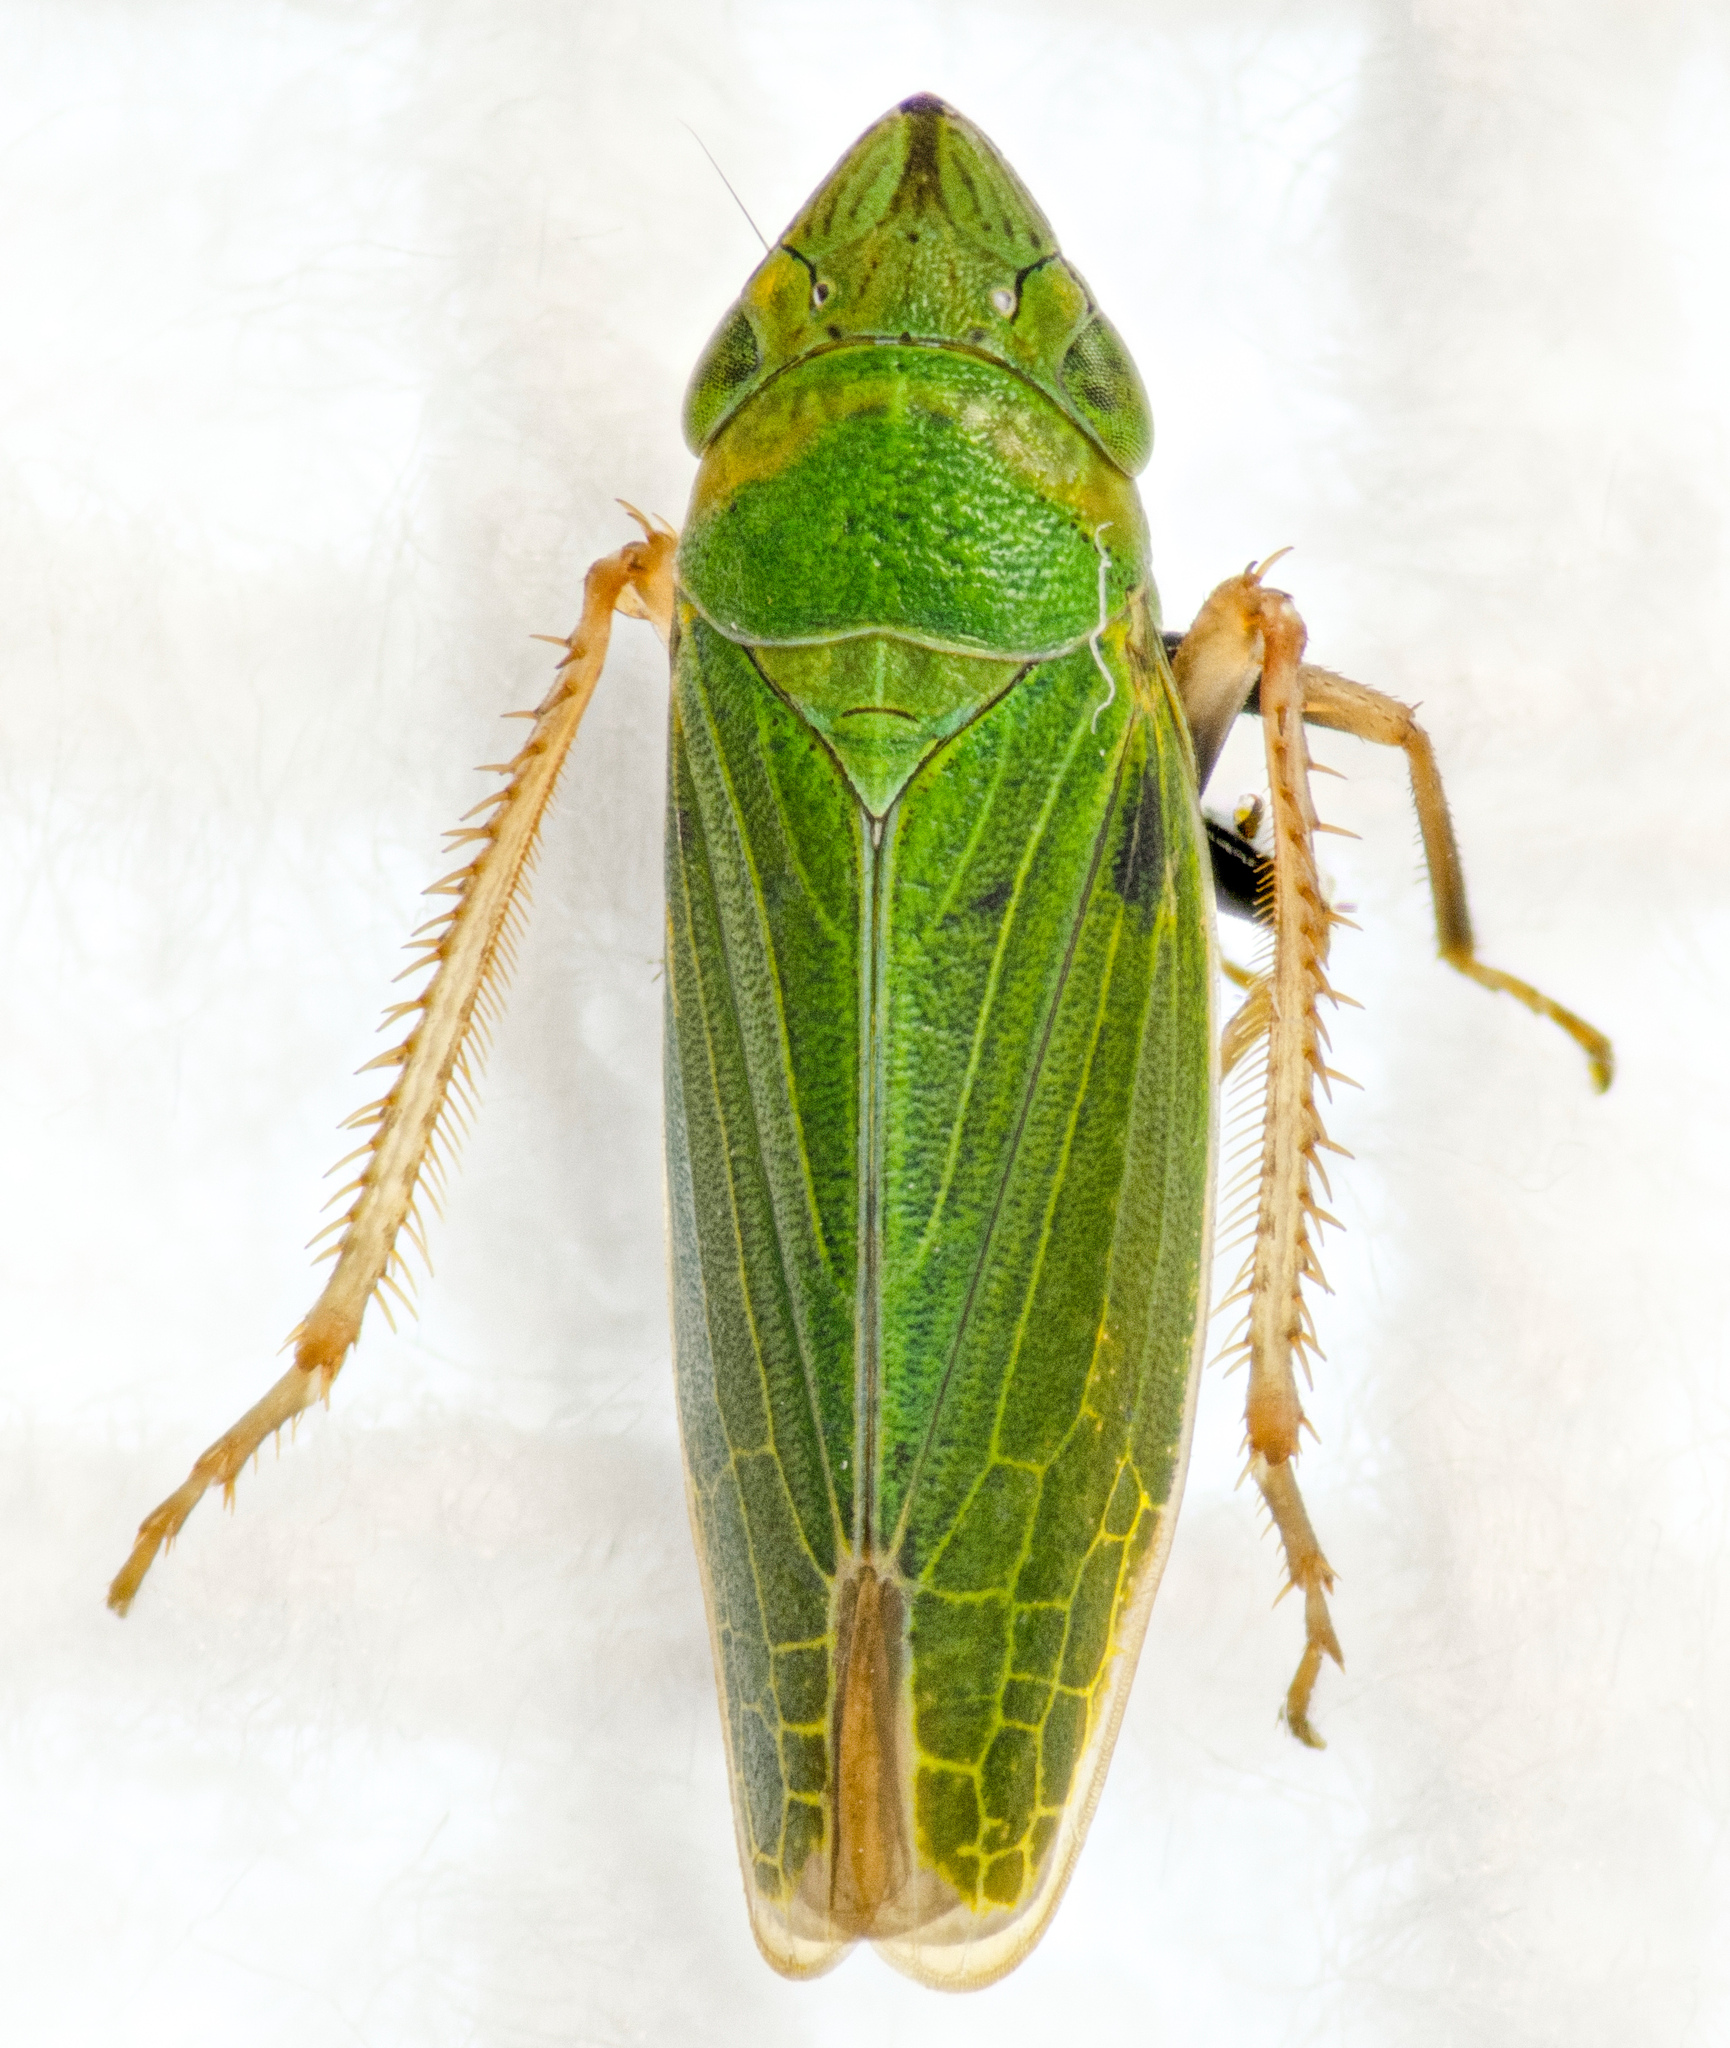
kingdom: Animalia
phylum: Arthropoda
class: Insecta
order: Hemiptera
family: Cicadellidae
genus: Draeculacephala
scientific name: Draeculacephala minerva
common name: Grass sharphooter
